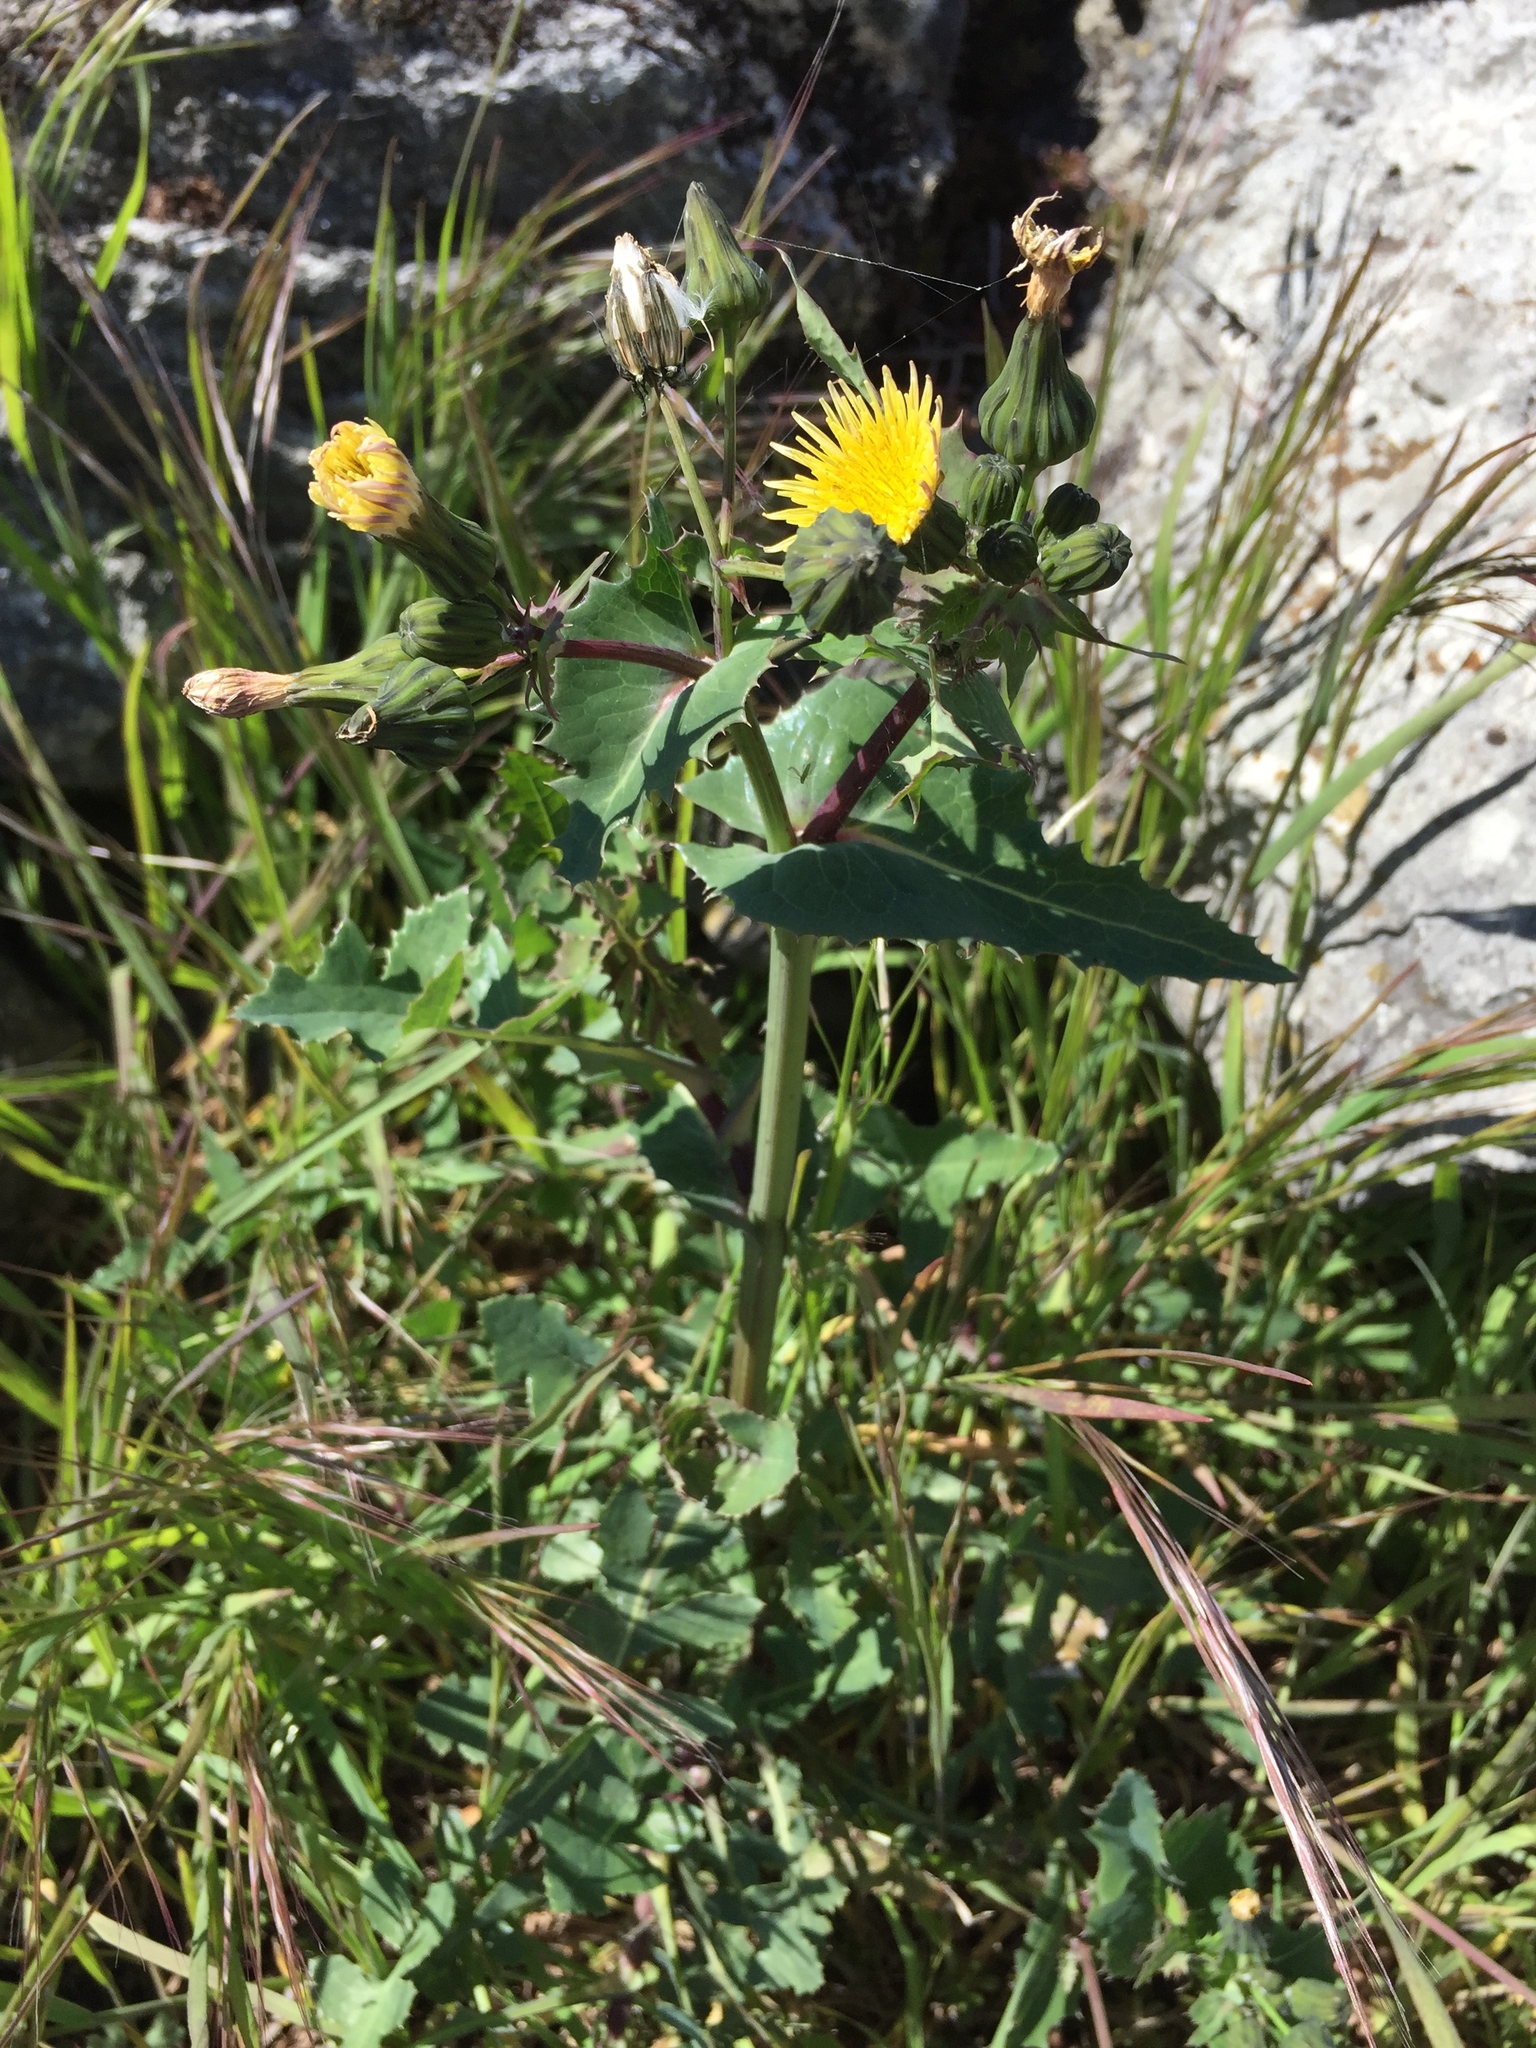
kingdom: Plantae
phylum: Tracheophyta
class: Magnoliopsida
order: Asterales
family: Asteraceae
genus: Sonchus
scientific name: Sonchus asper
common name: Prickly sow-thistle
